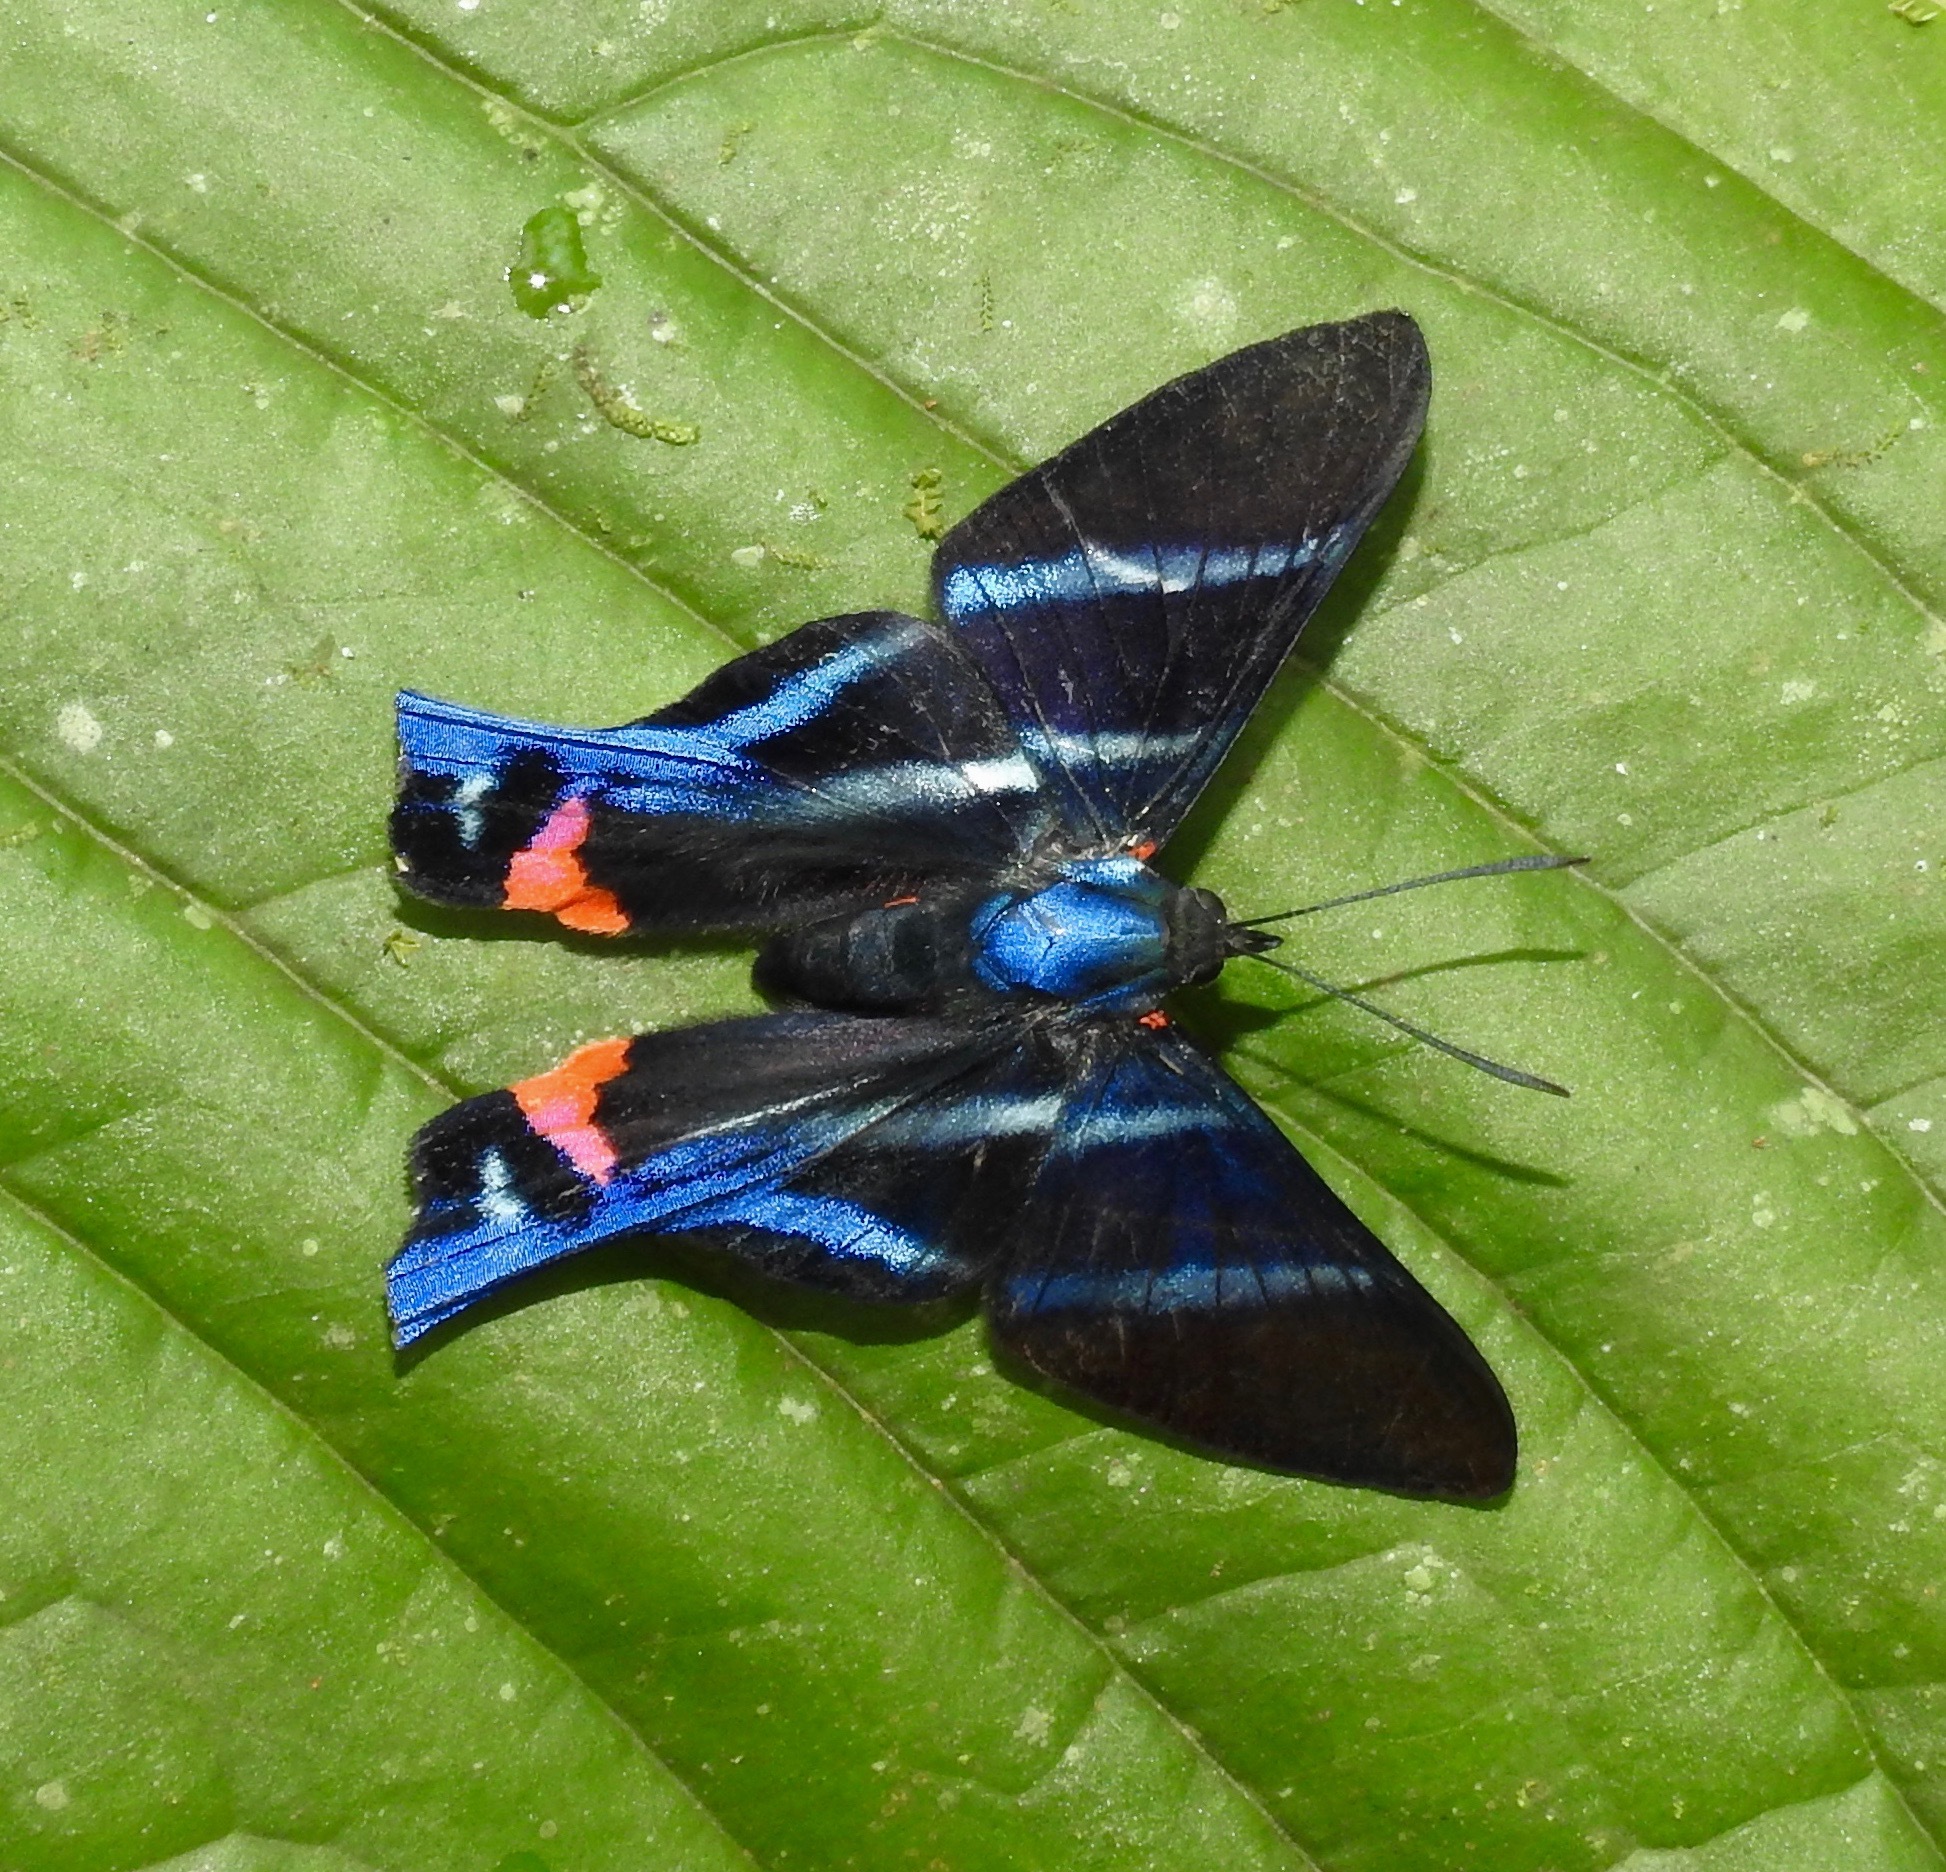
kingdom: Animalia
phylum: Arthropoda
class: Insecta
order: Lepidoptera
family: Riodinidae
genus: Rhetus
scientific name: Rhetus arcius
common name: Long-tailed metalmark
